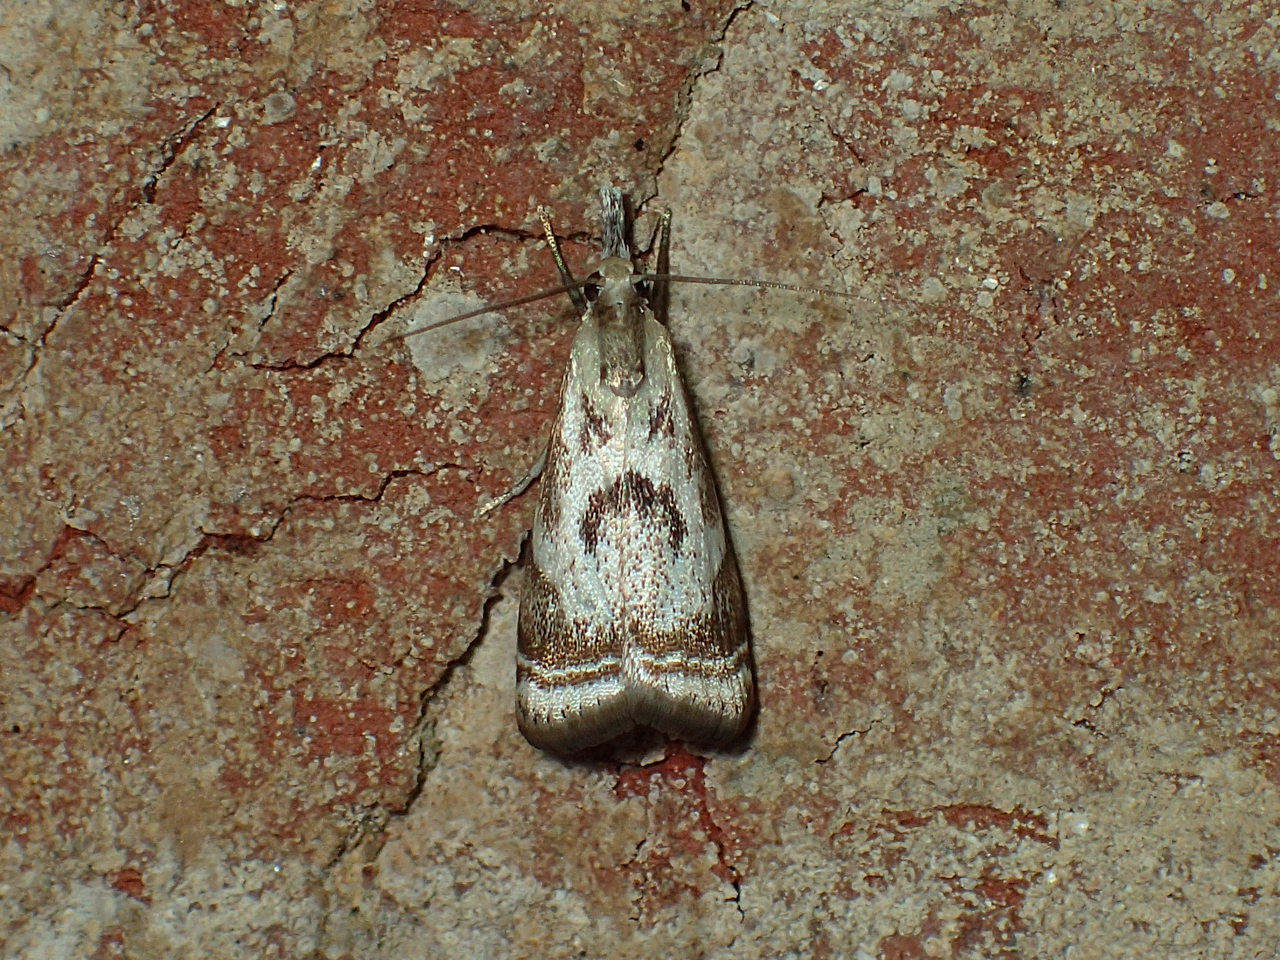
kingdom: Animalia
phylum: Arthropoda
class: Insecta
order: Lepidoptera
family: Crambidae
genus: Microcrambus
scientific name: Microcrambus elegans
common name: Elegant grass-veneer
